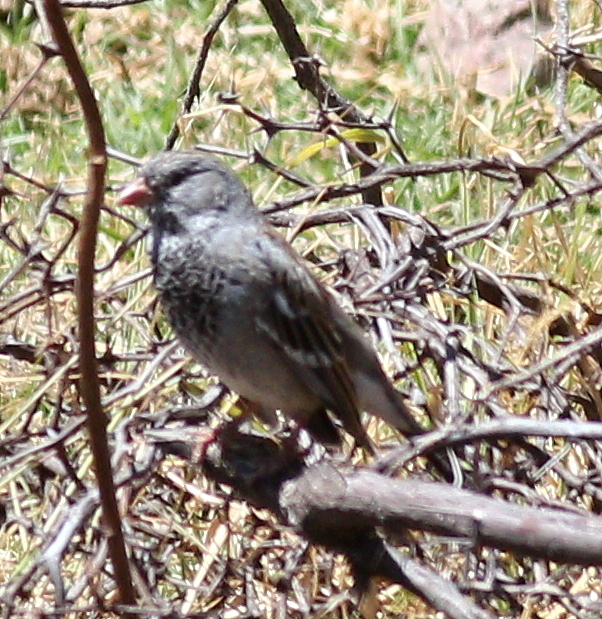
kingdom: Animalia
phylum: Chordata
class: Aves
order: Passeriformes
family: Thraupidae
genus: Rhopospina
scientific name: Rhopospina fruticeti
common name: Mourning sierra finch
